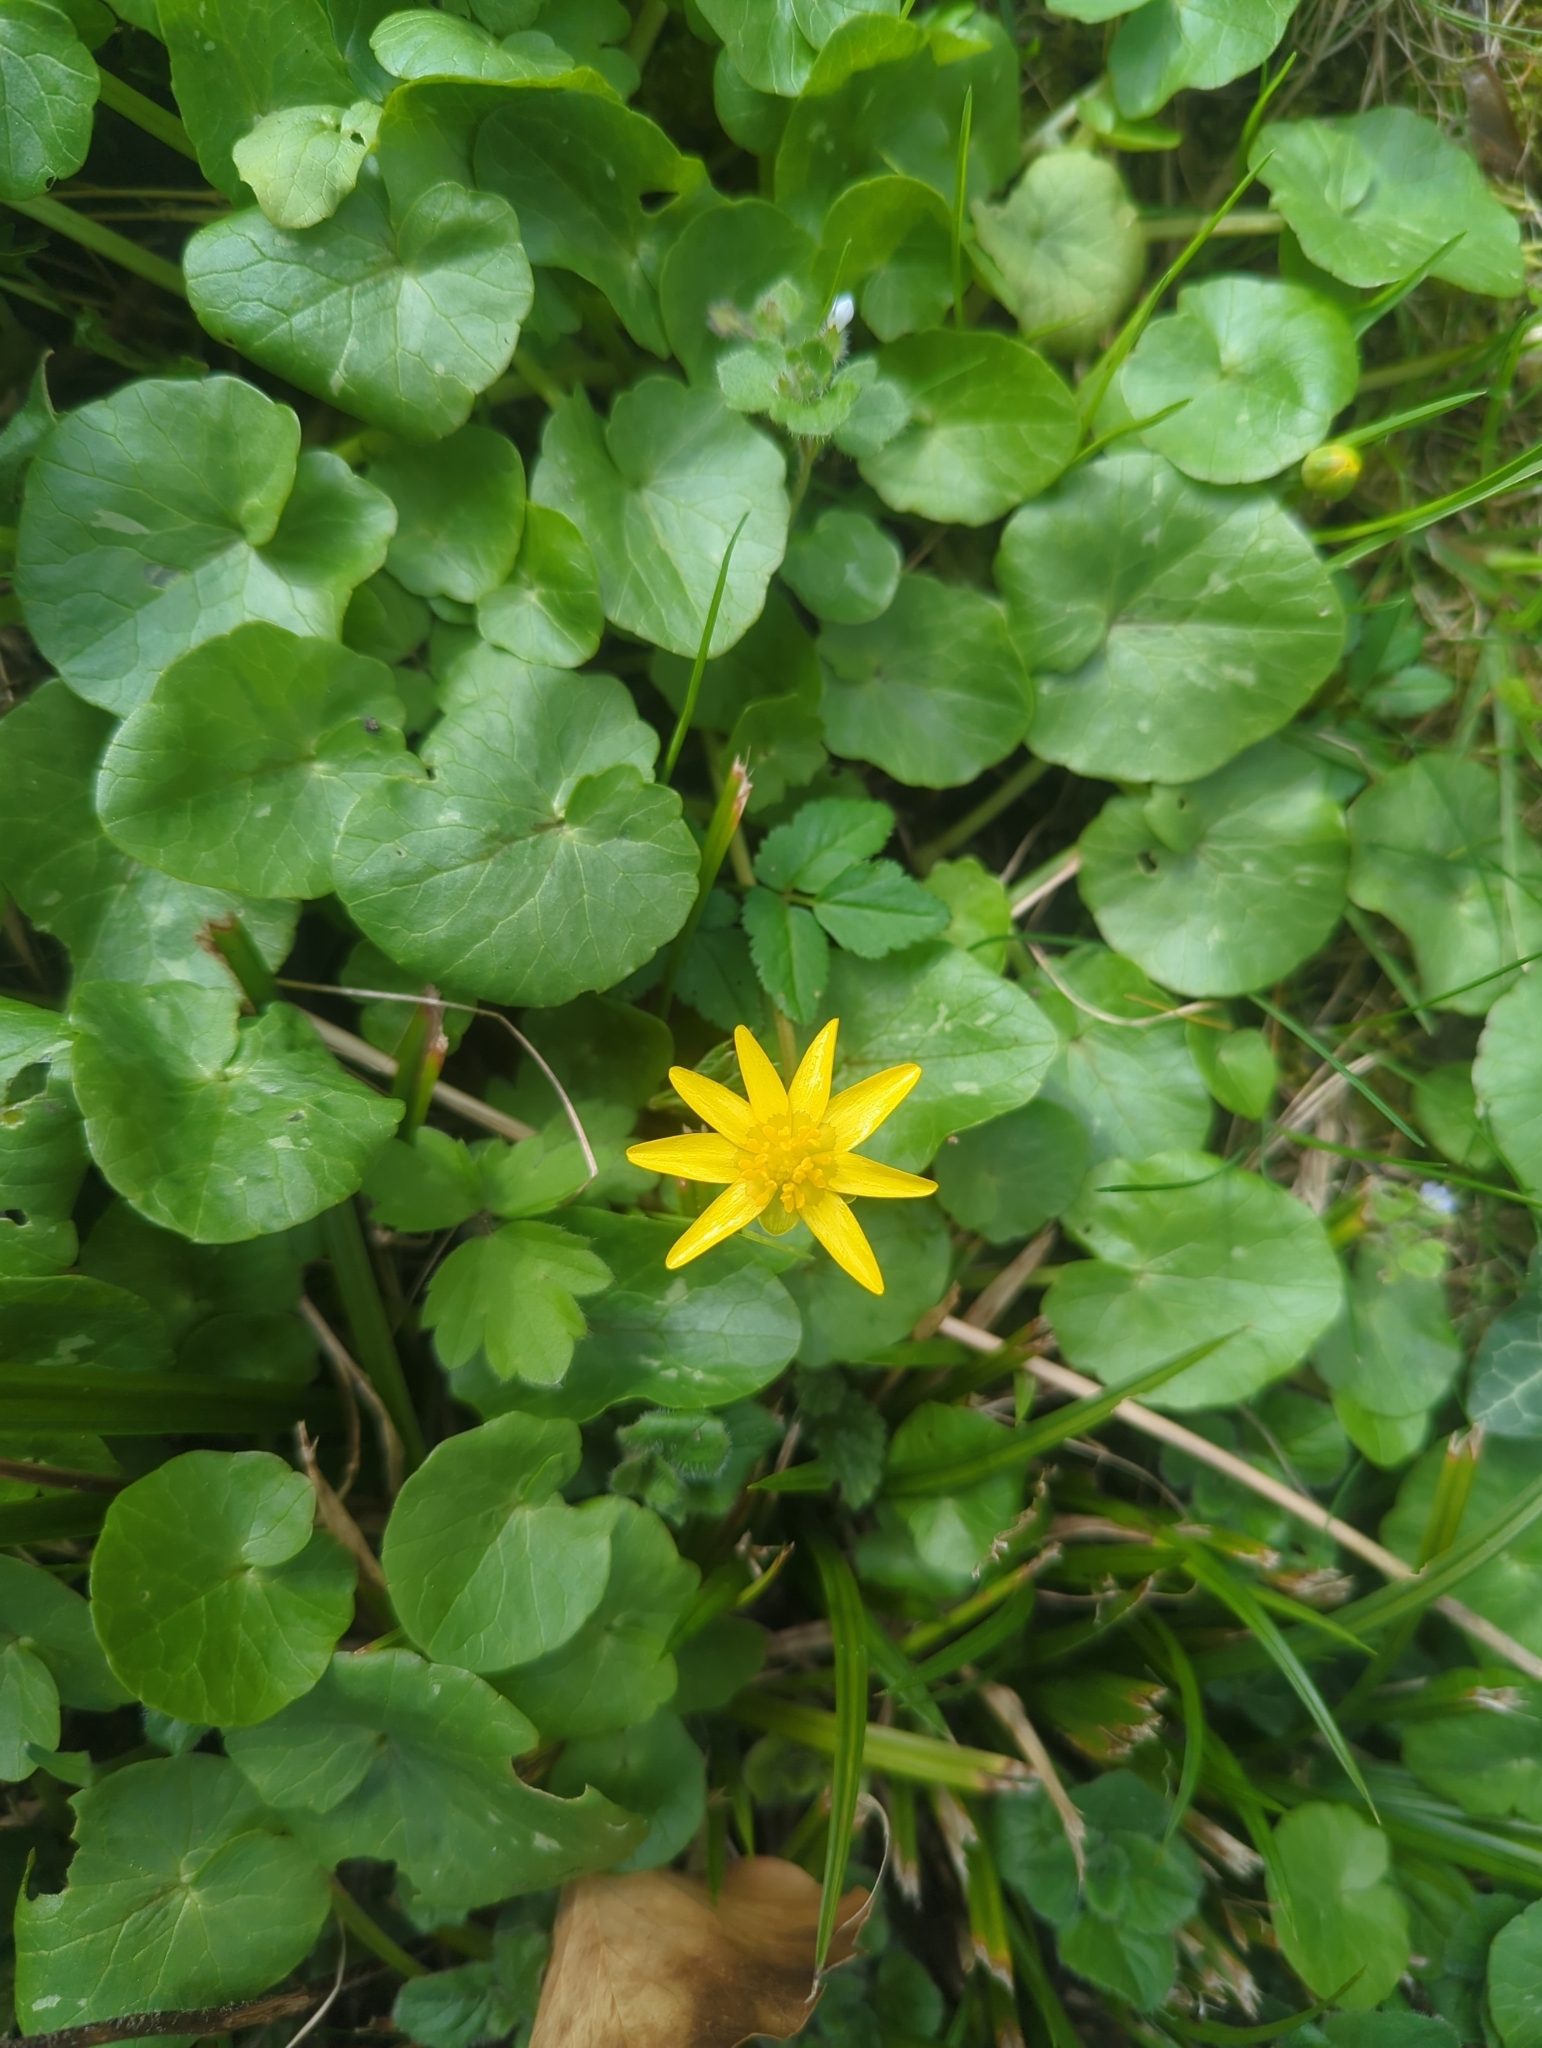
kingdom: Plantae
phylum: Tracheophyta
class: Magnoliopsida
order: Ranunculales
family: Ranunculaceae
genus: Ficaria
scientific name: Ficaria verna
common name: Lesser celandine
